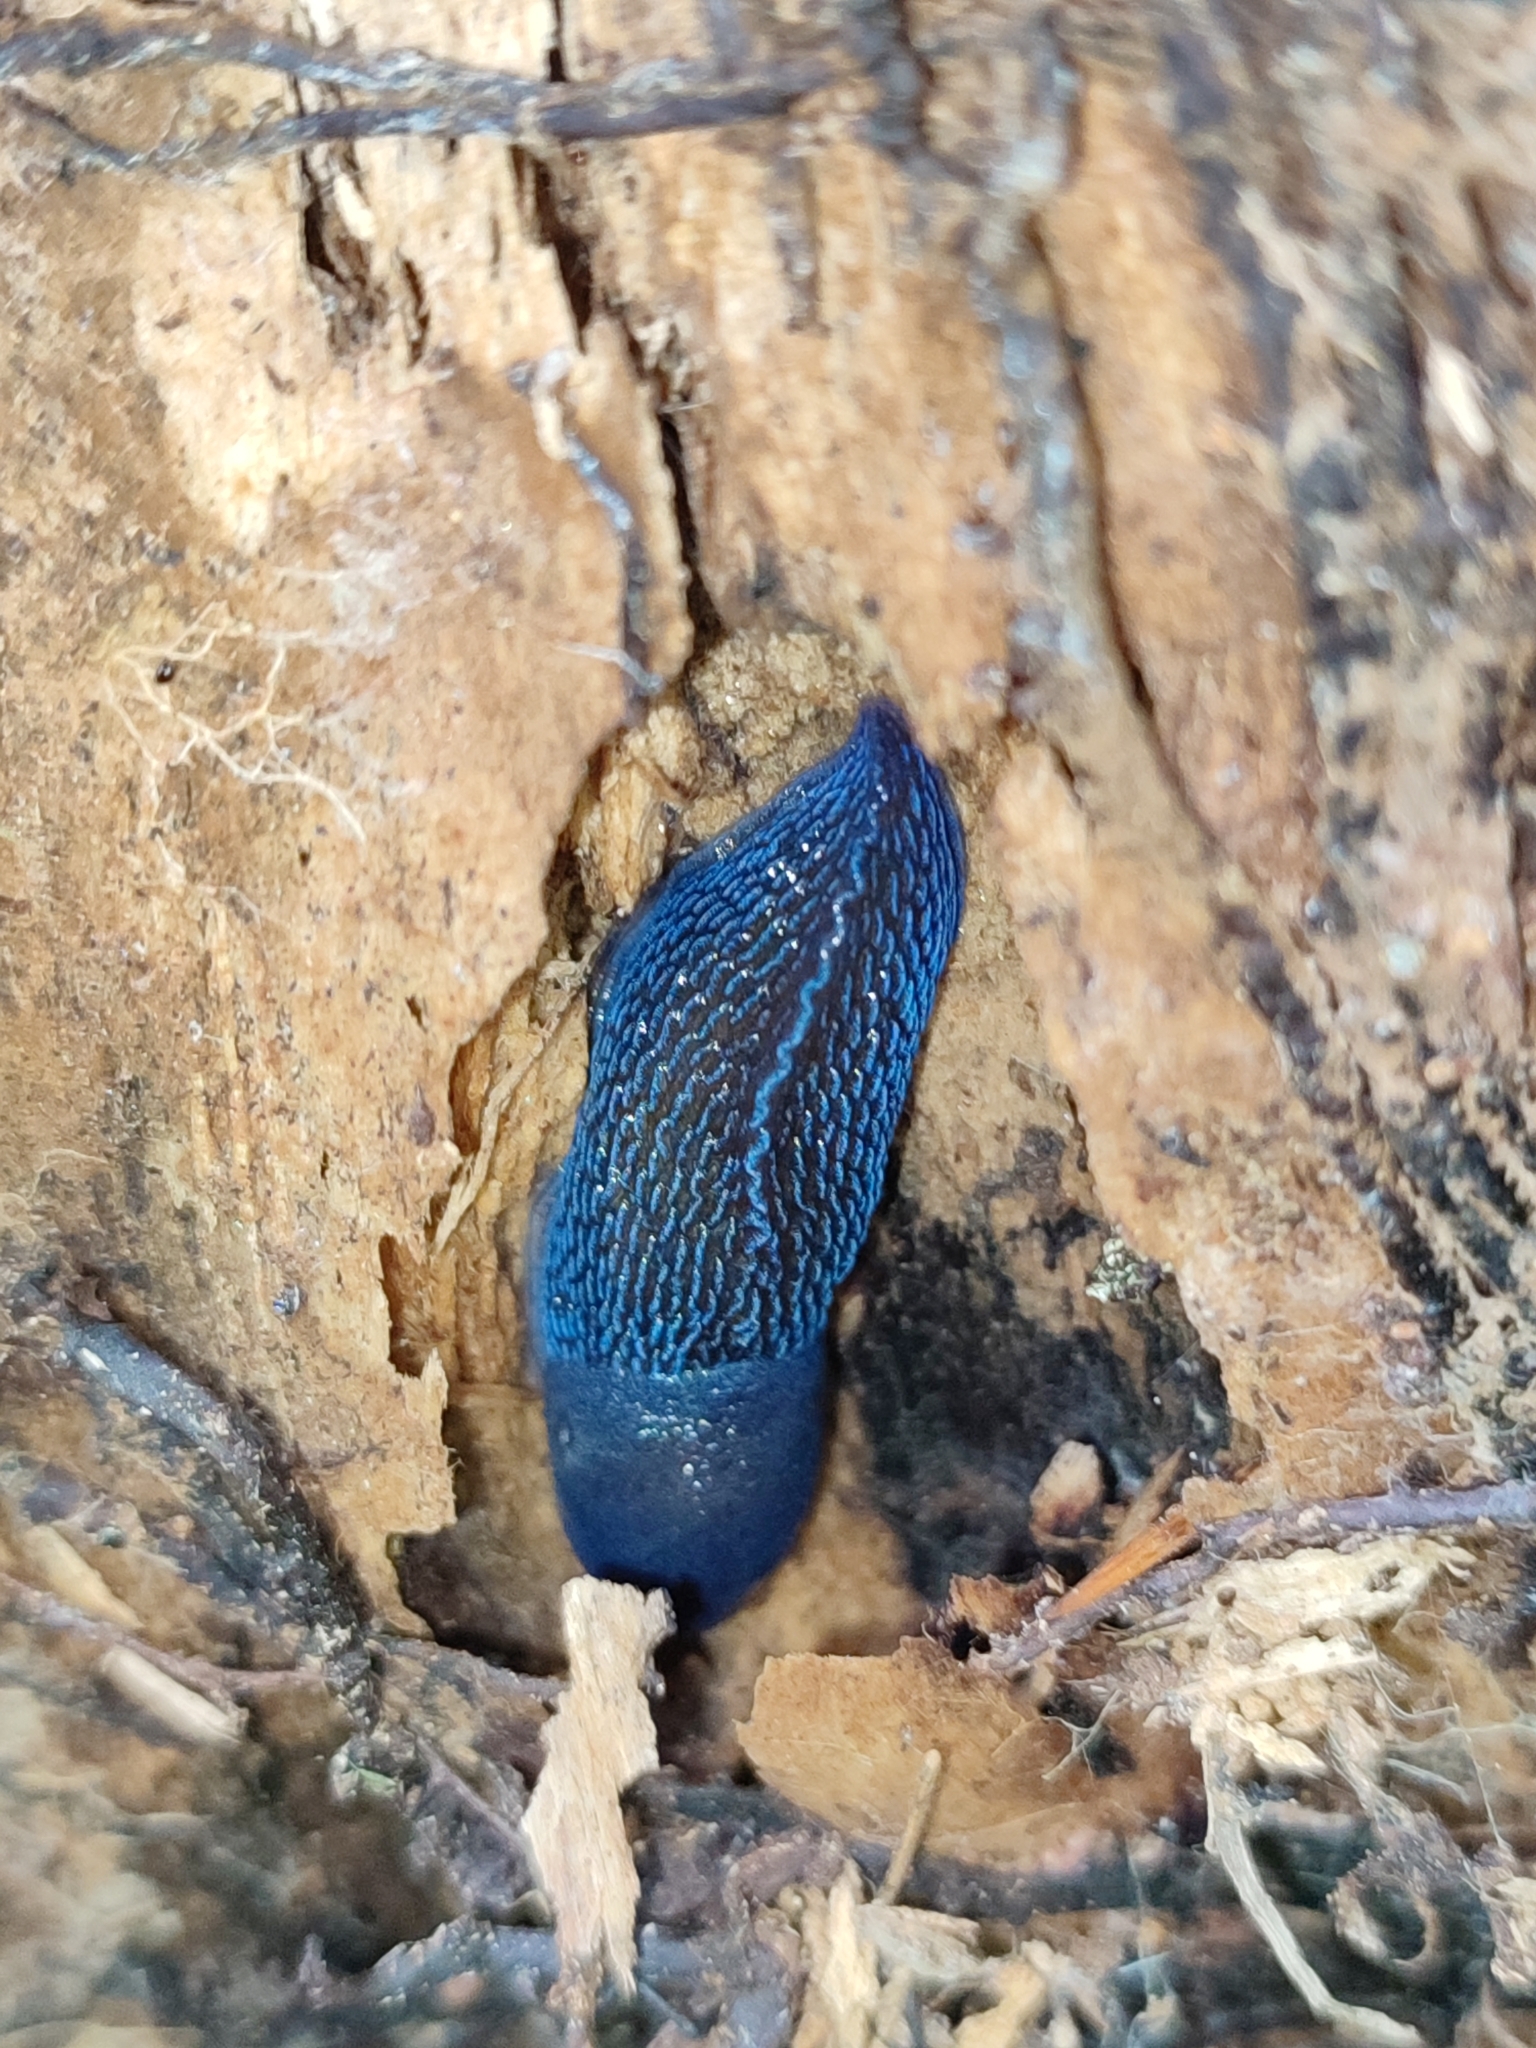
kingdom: Animalia
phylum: Mollusca
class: Gastropoda
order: Stylommatophora
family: Limacidae
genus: Bielzia
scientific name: Bielzia coerulans
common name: Carpathian blue slug
